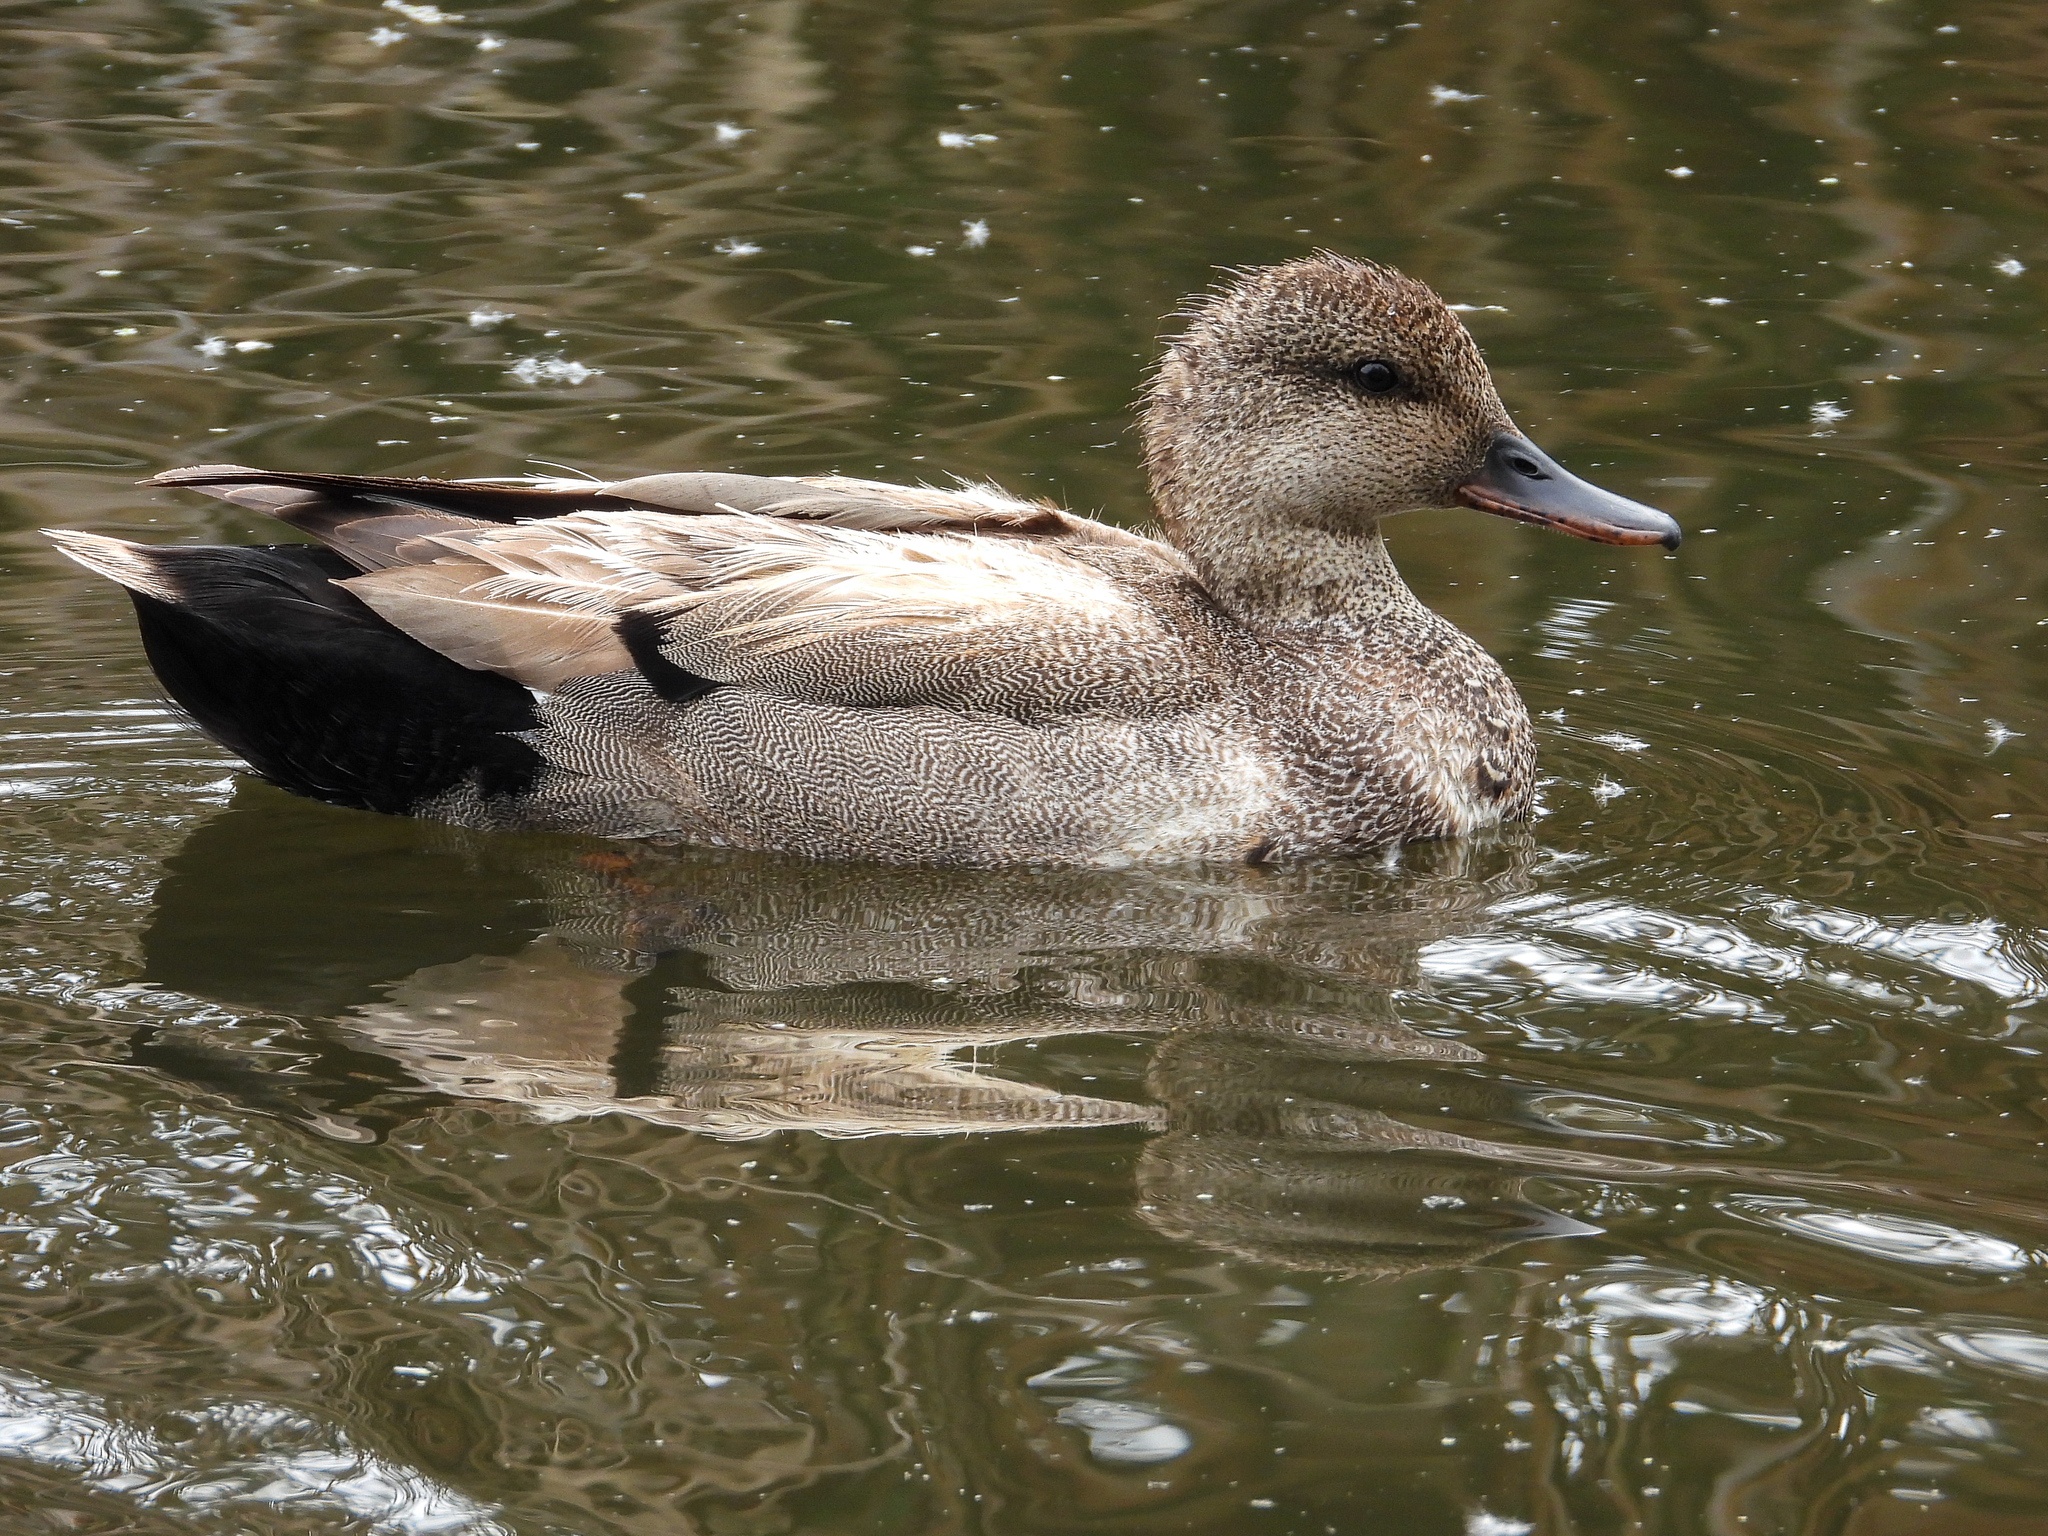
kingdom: Animalia
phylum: Chordata
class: Aves
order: Anseriformes
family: Anatidae
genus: Mareca
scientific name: Mareca strepera
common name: Gadwall
